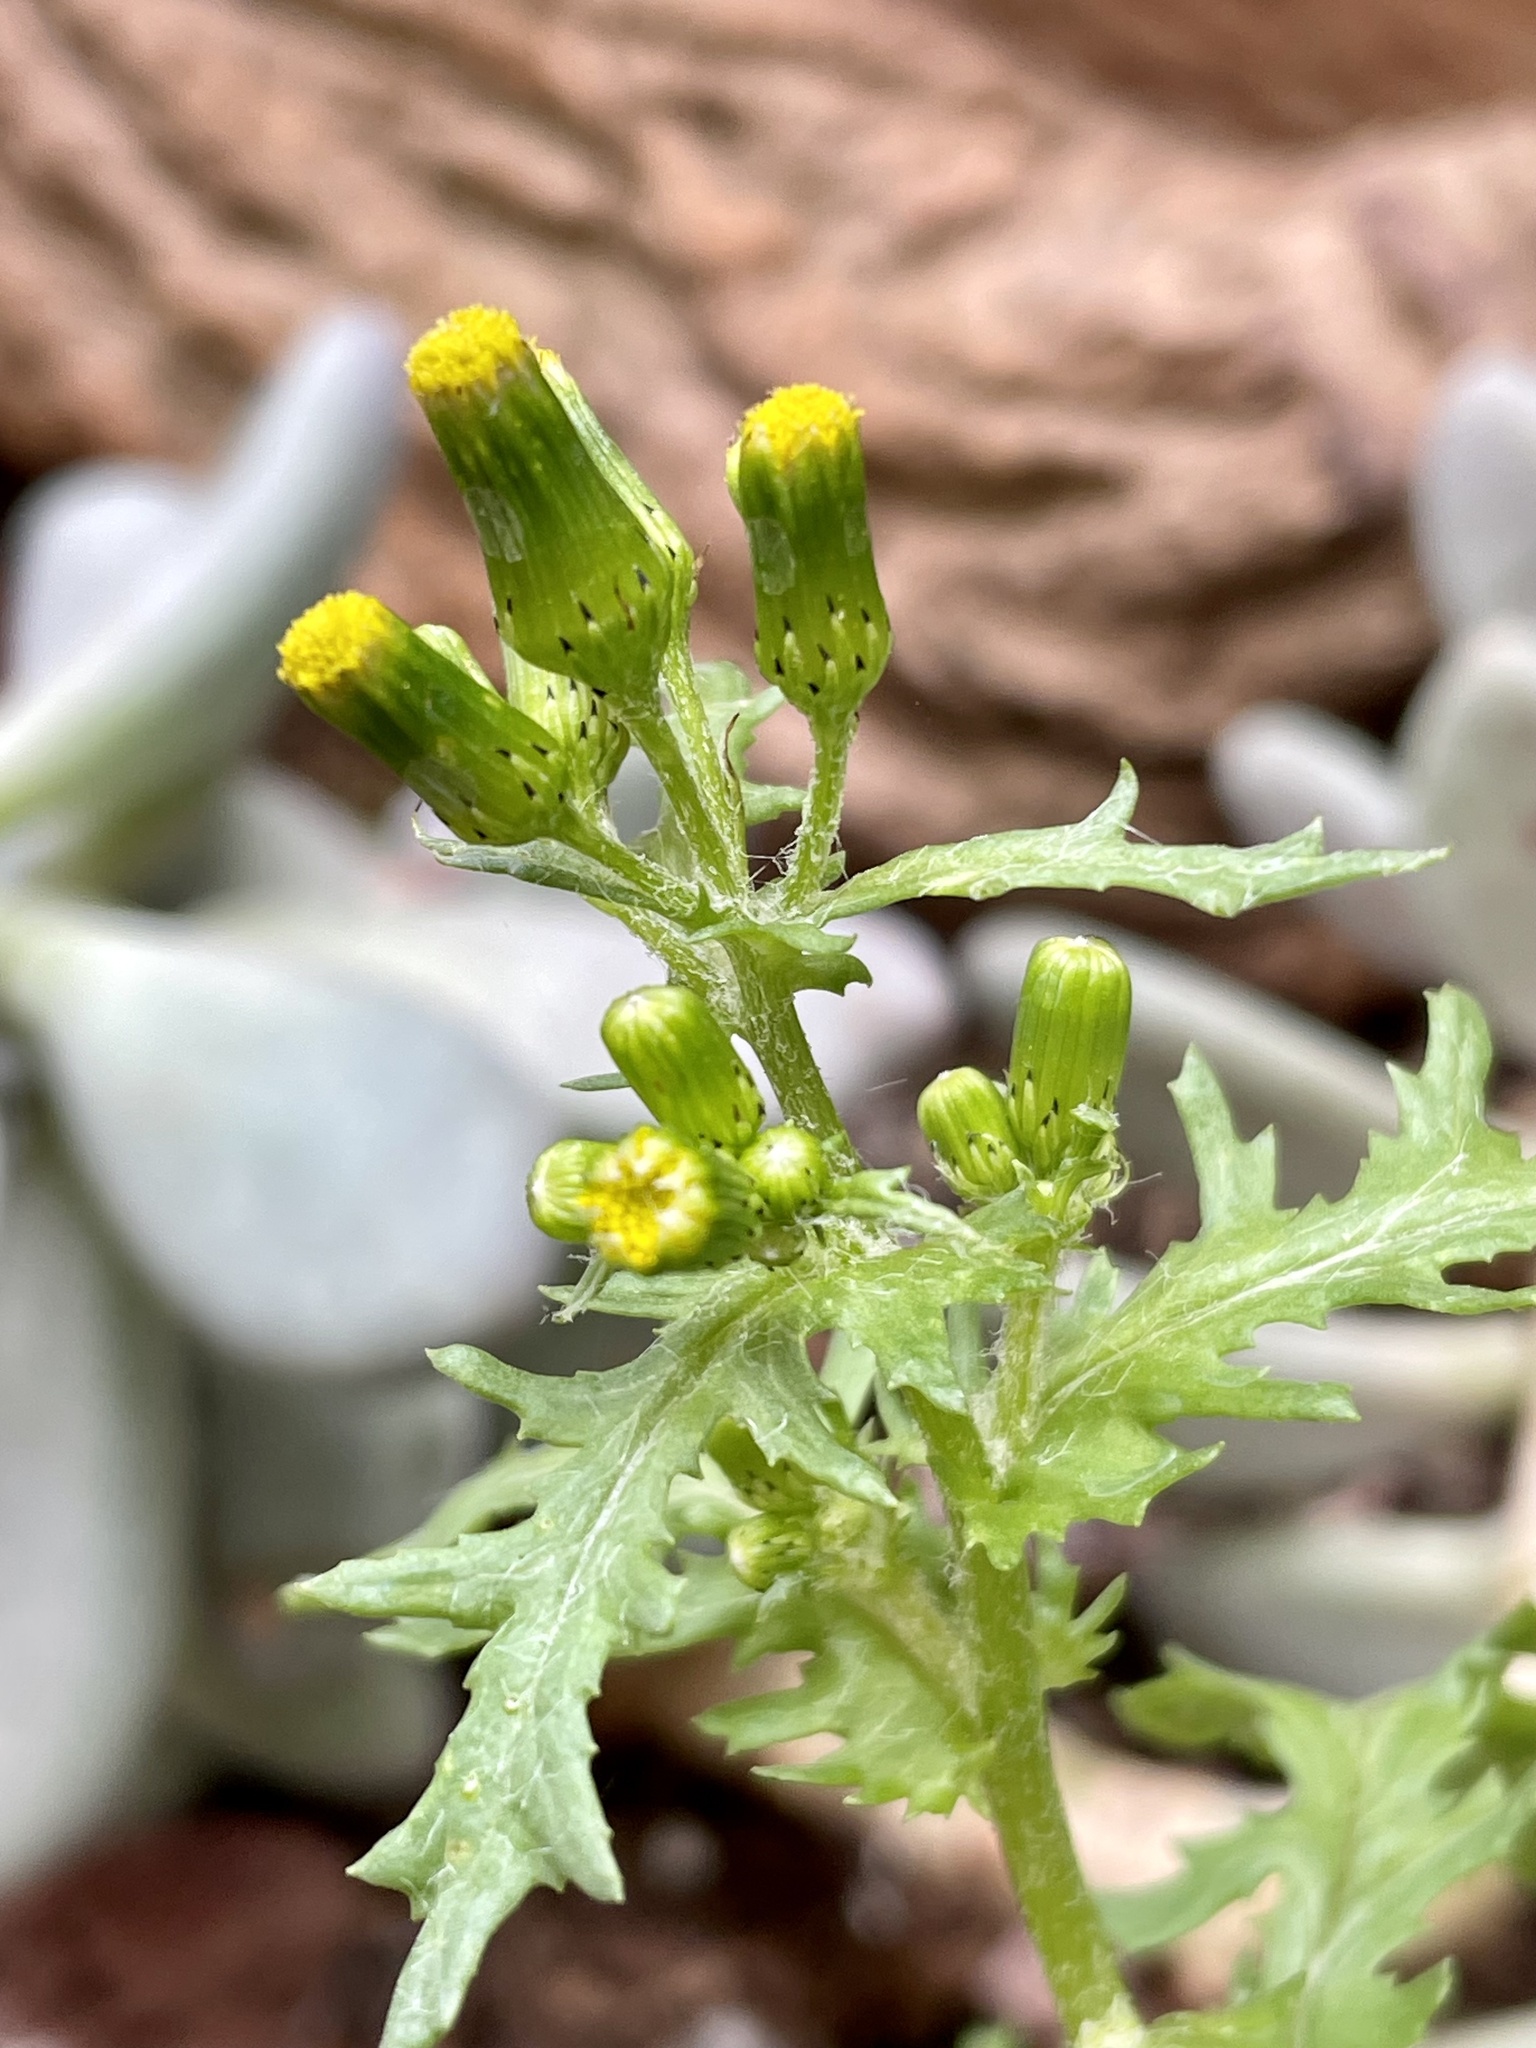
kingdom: Plantae
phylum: Tracheophyta
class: Magnoliopsida
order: Asterales
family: Asteraceae
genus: Senecio
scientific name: Senecio vulgaris
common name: Old-man-in-the-spring
